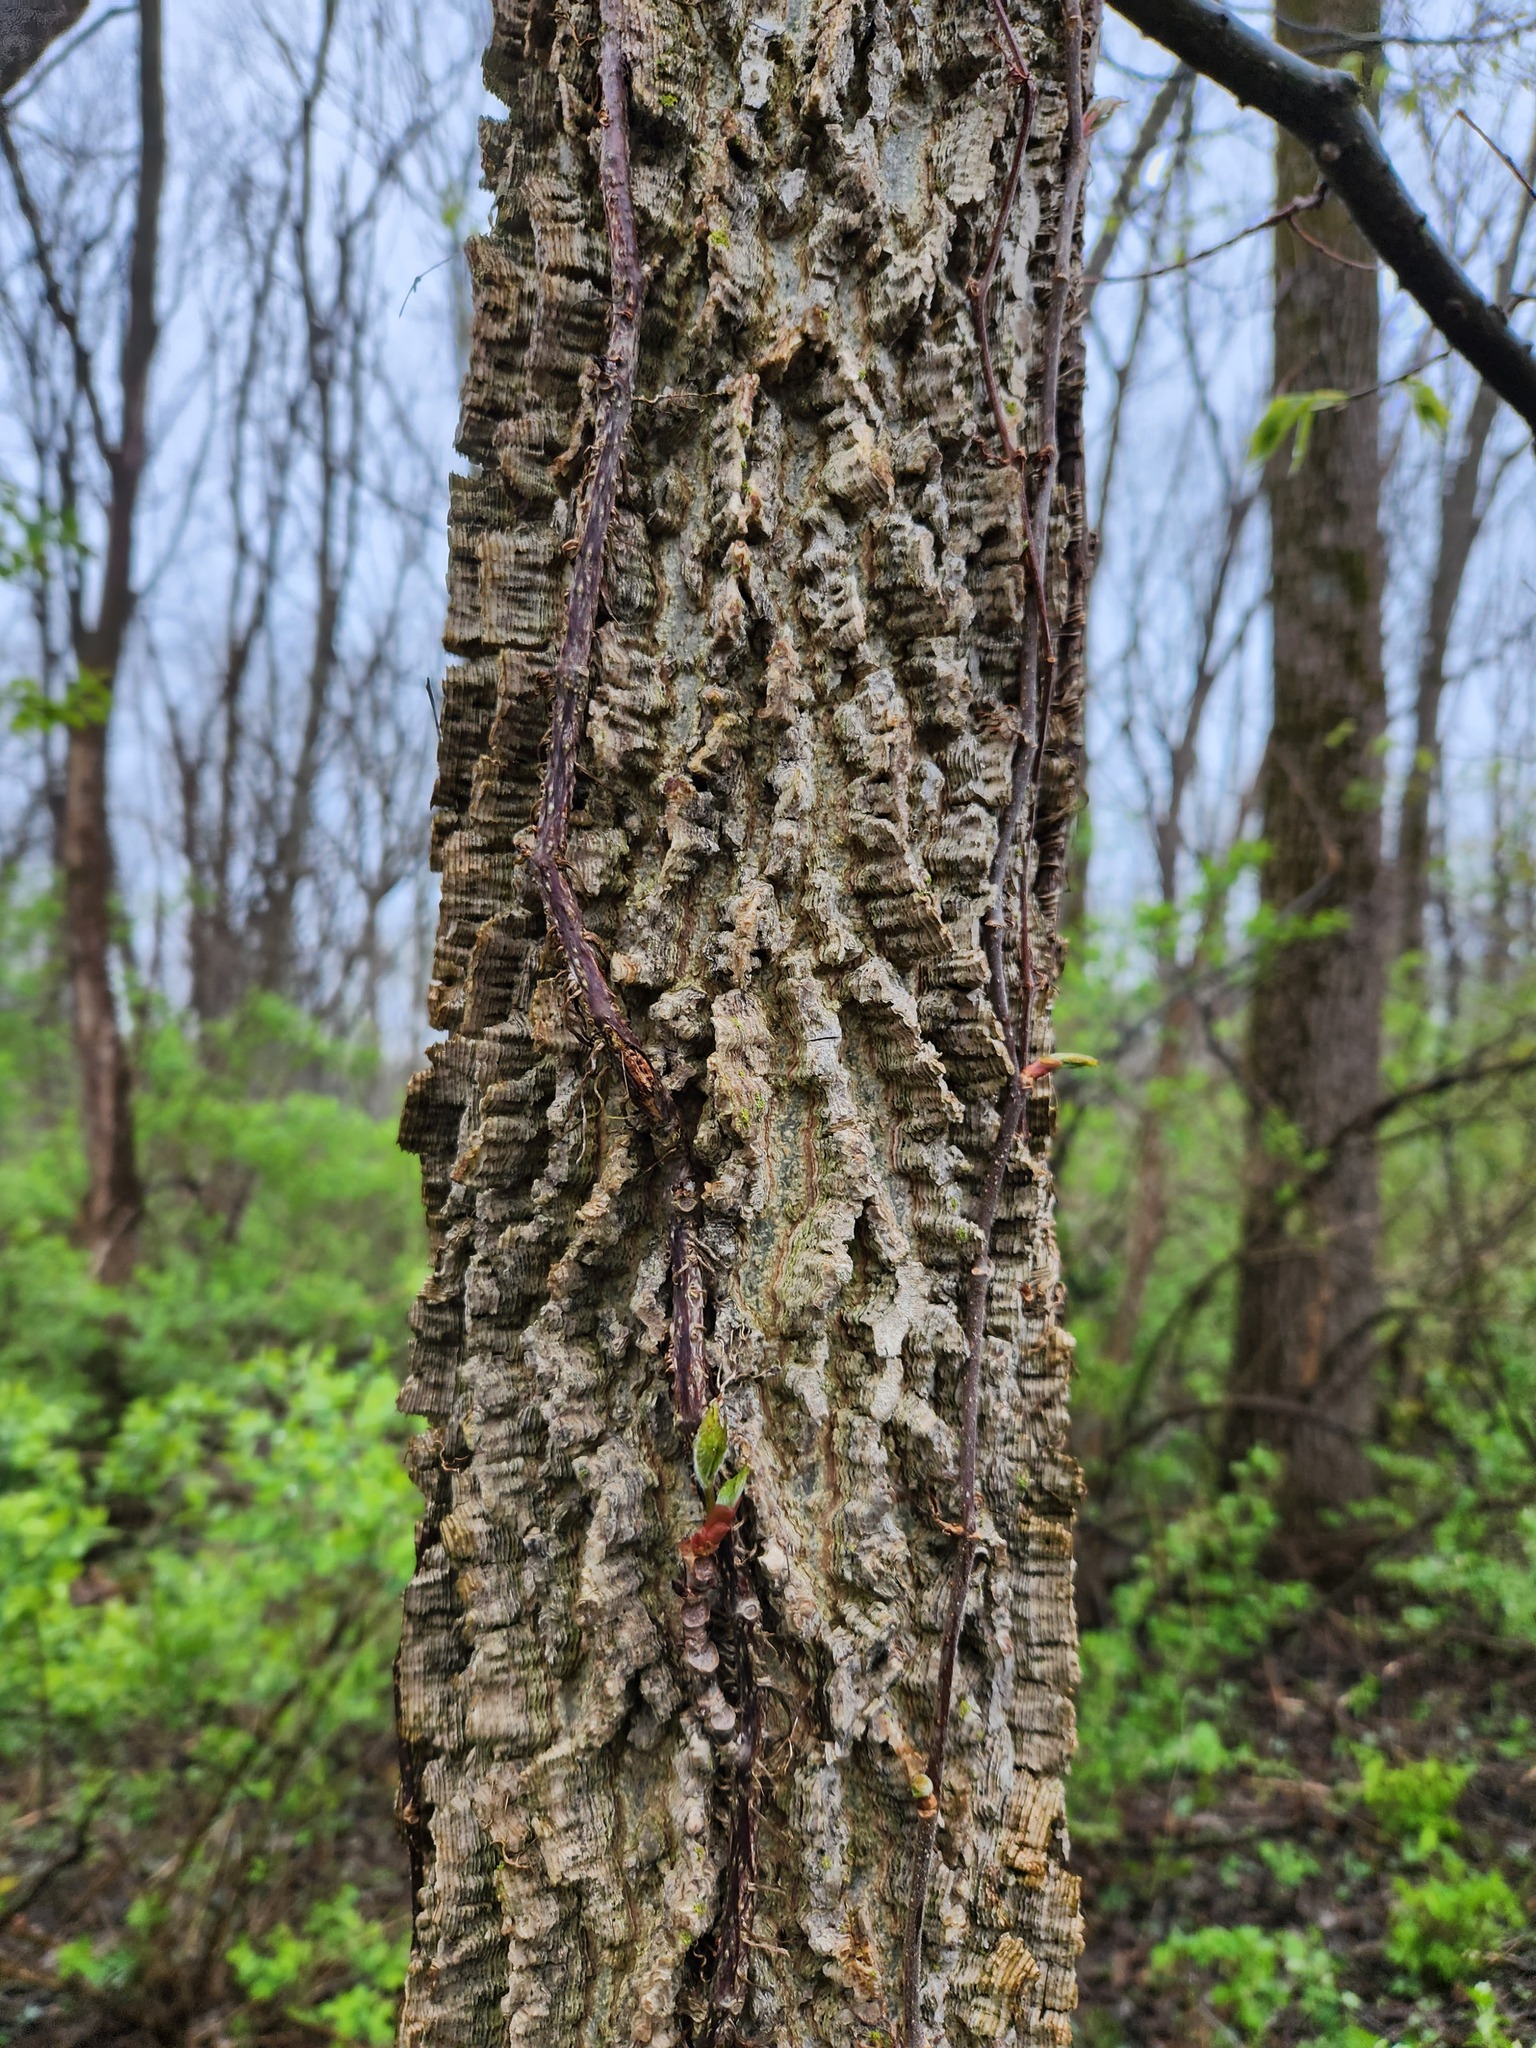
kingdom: Plantae
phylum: Tracheophyta
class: Magnoliopsida
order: Rosales
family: Cannabaceae
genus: Celtis
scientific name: Celtis occidentalis
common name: Common hackberry
